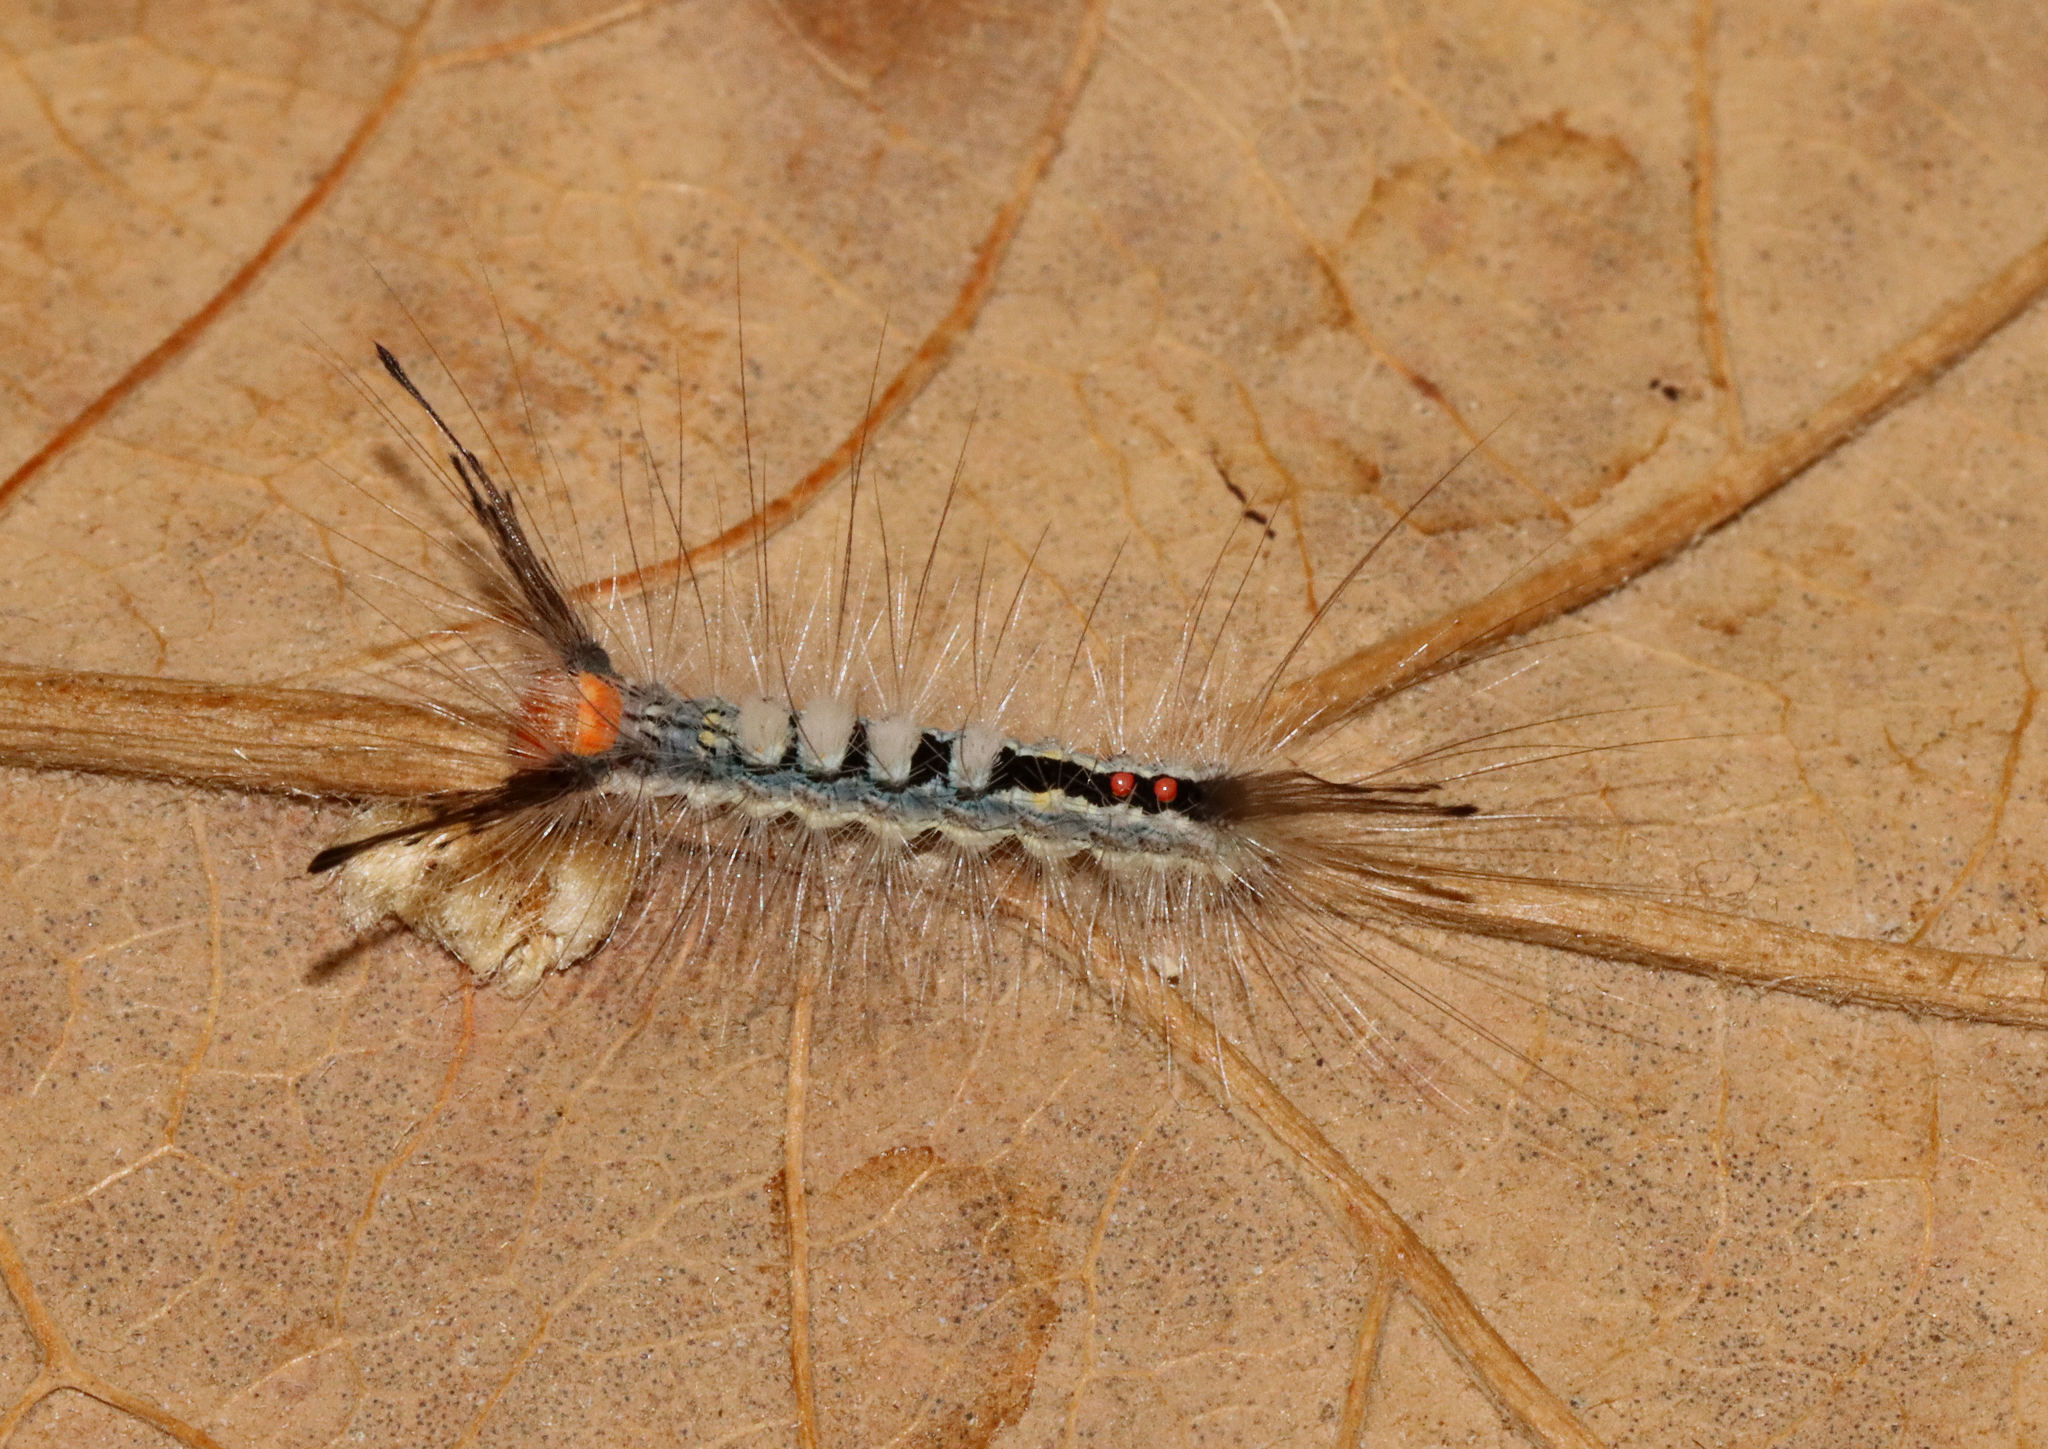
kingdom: Animalia
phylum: Arthropoda
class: Insecta
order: Lepidoptera
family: Erebidae
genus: Orgyia
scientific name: Orgyia leucostigma
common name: White-marked tussock moth
